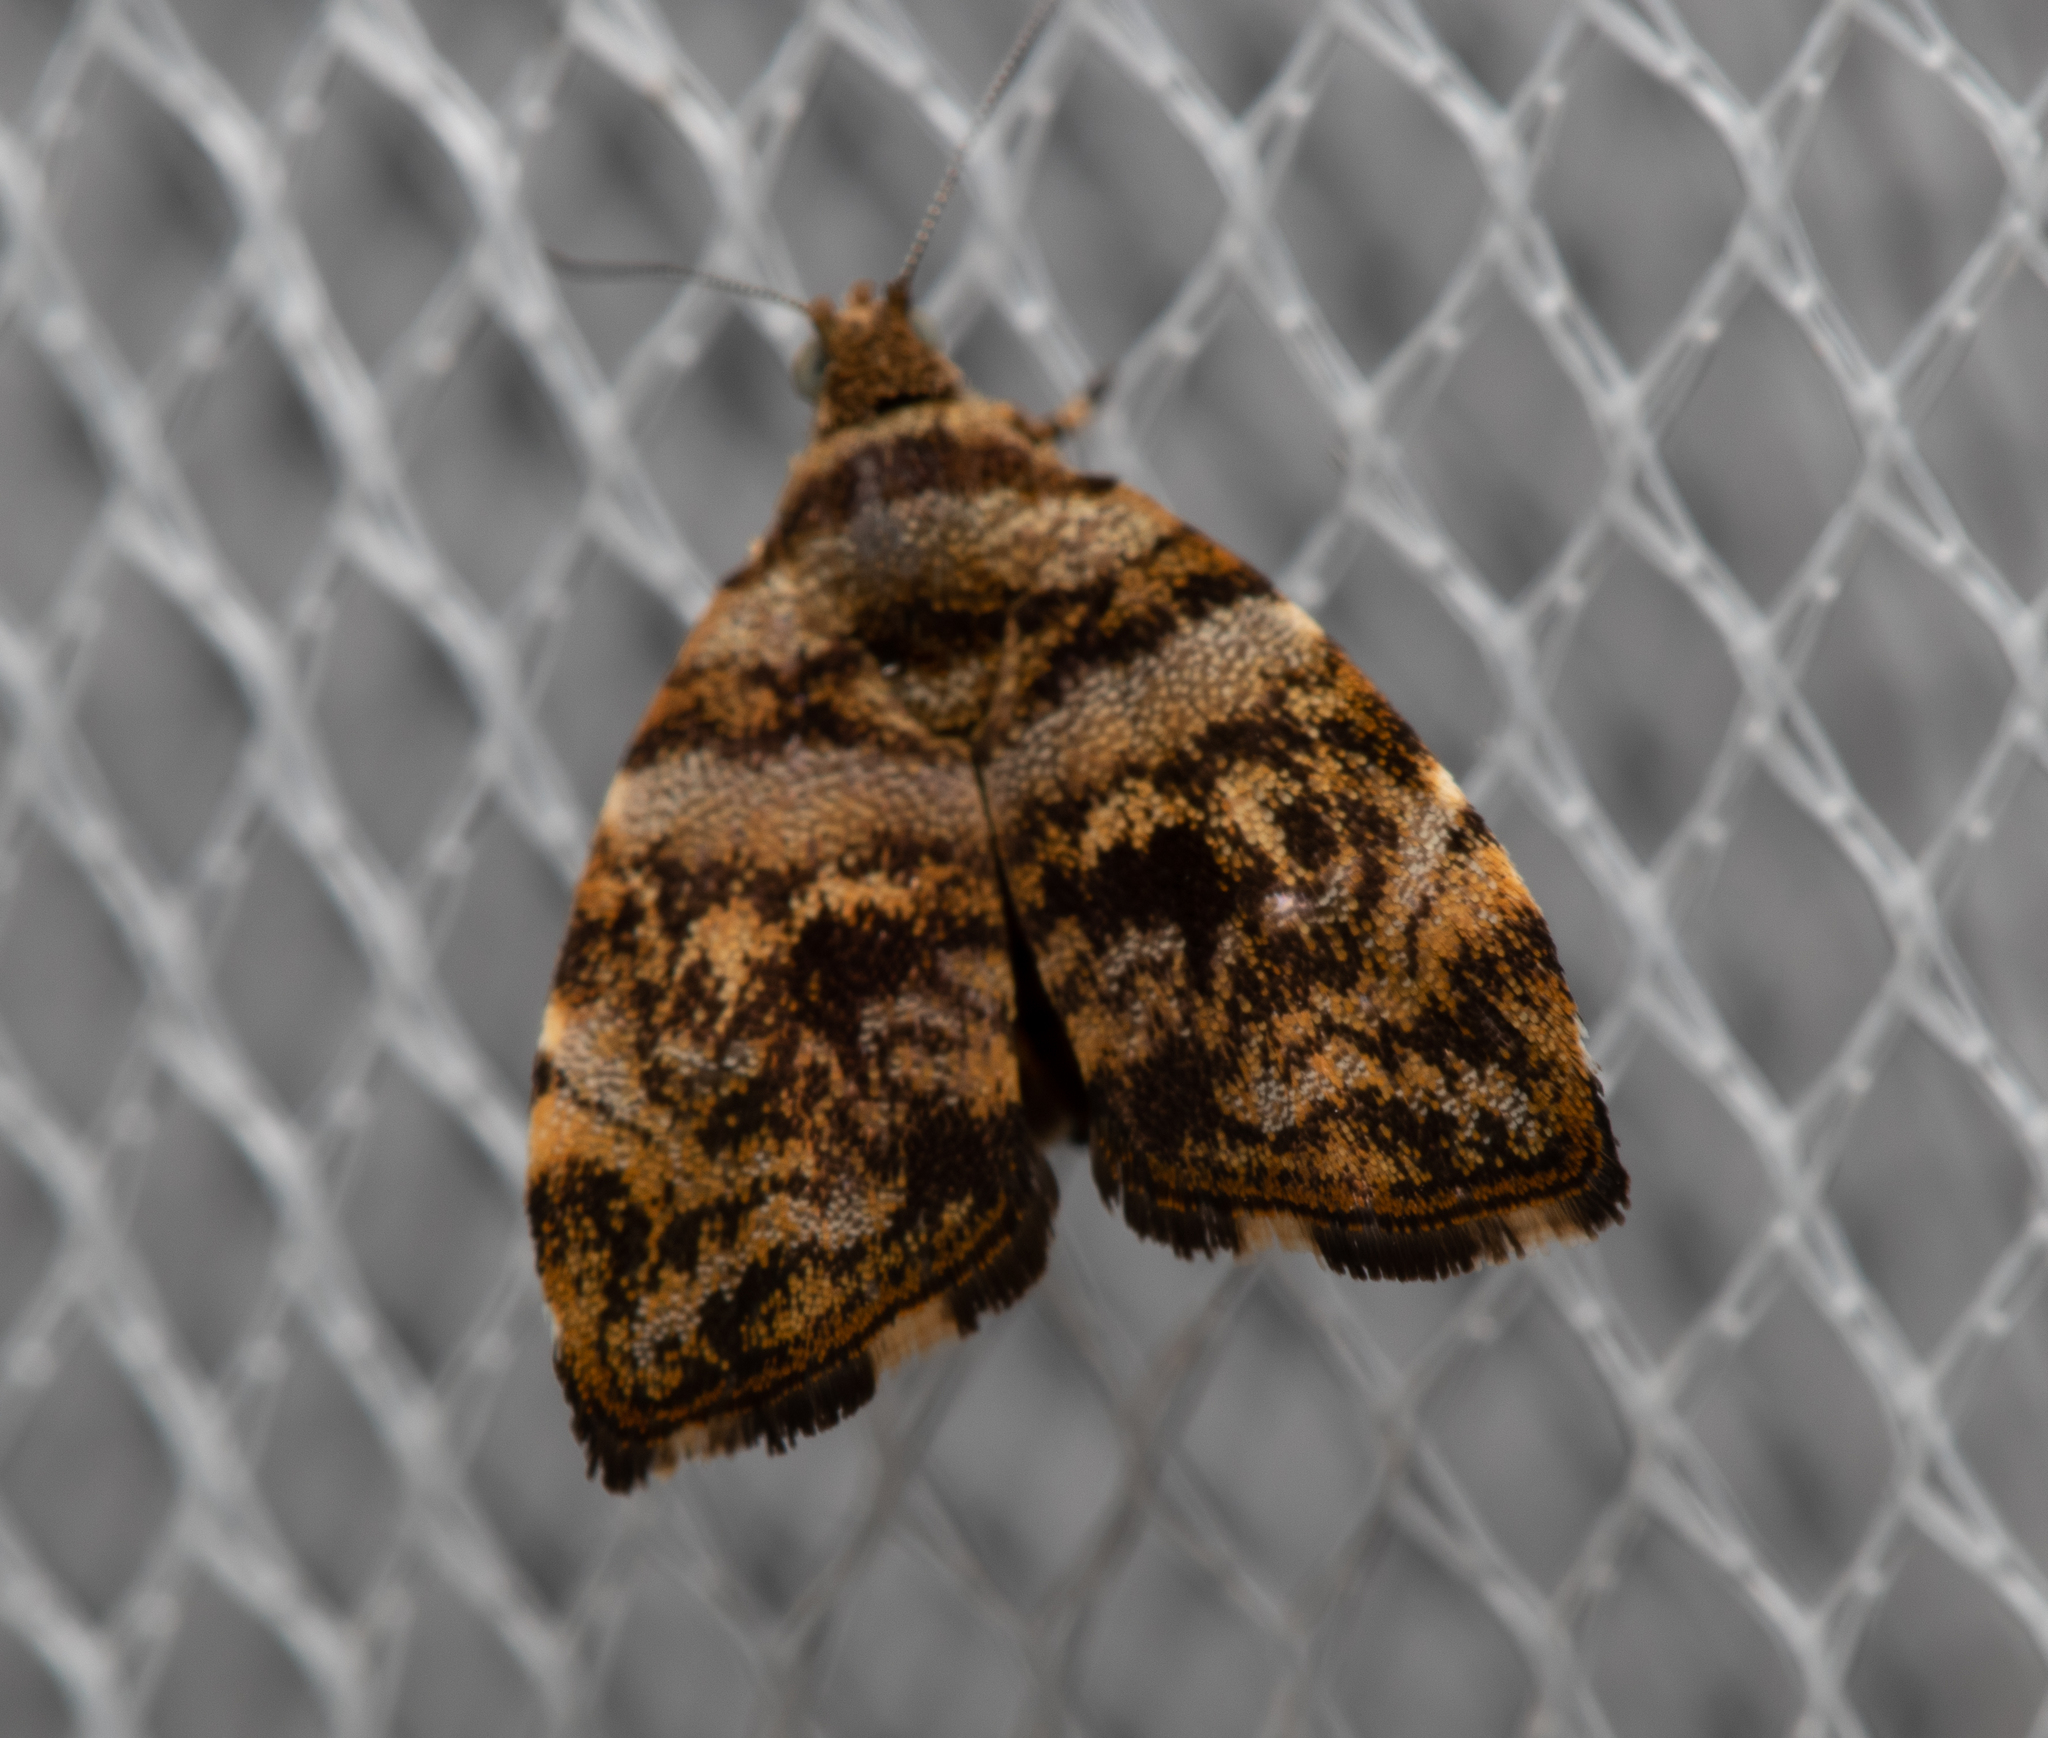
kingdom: Animalia
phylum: Arthropoda
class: Insecta
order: Lepidoptera
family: Choreutidae
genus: Choreutis
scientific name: Choreutis ophiosema
